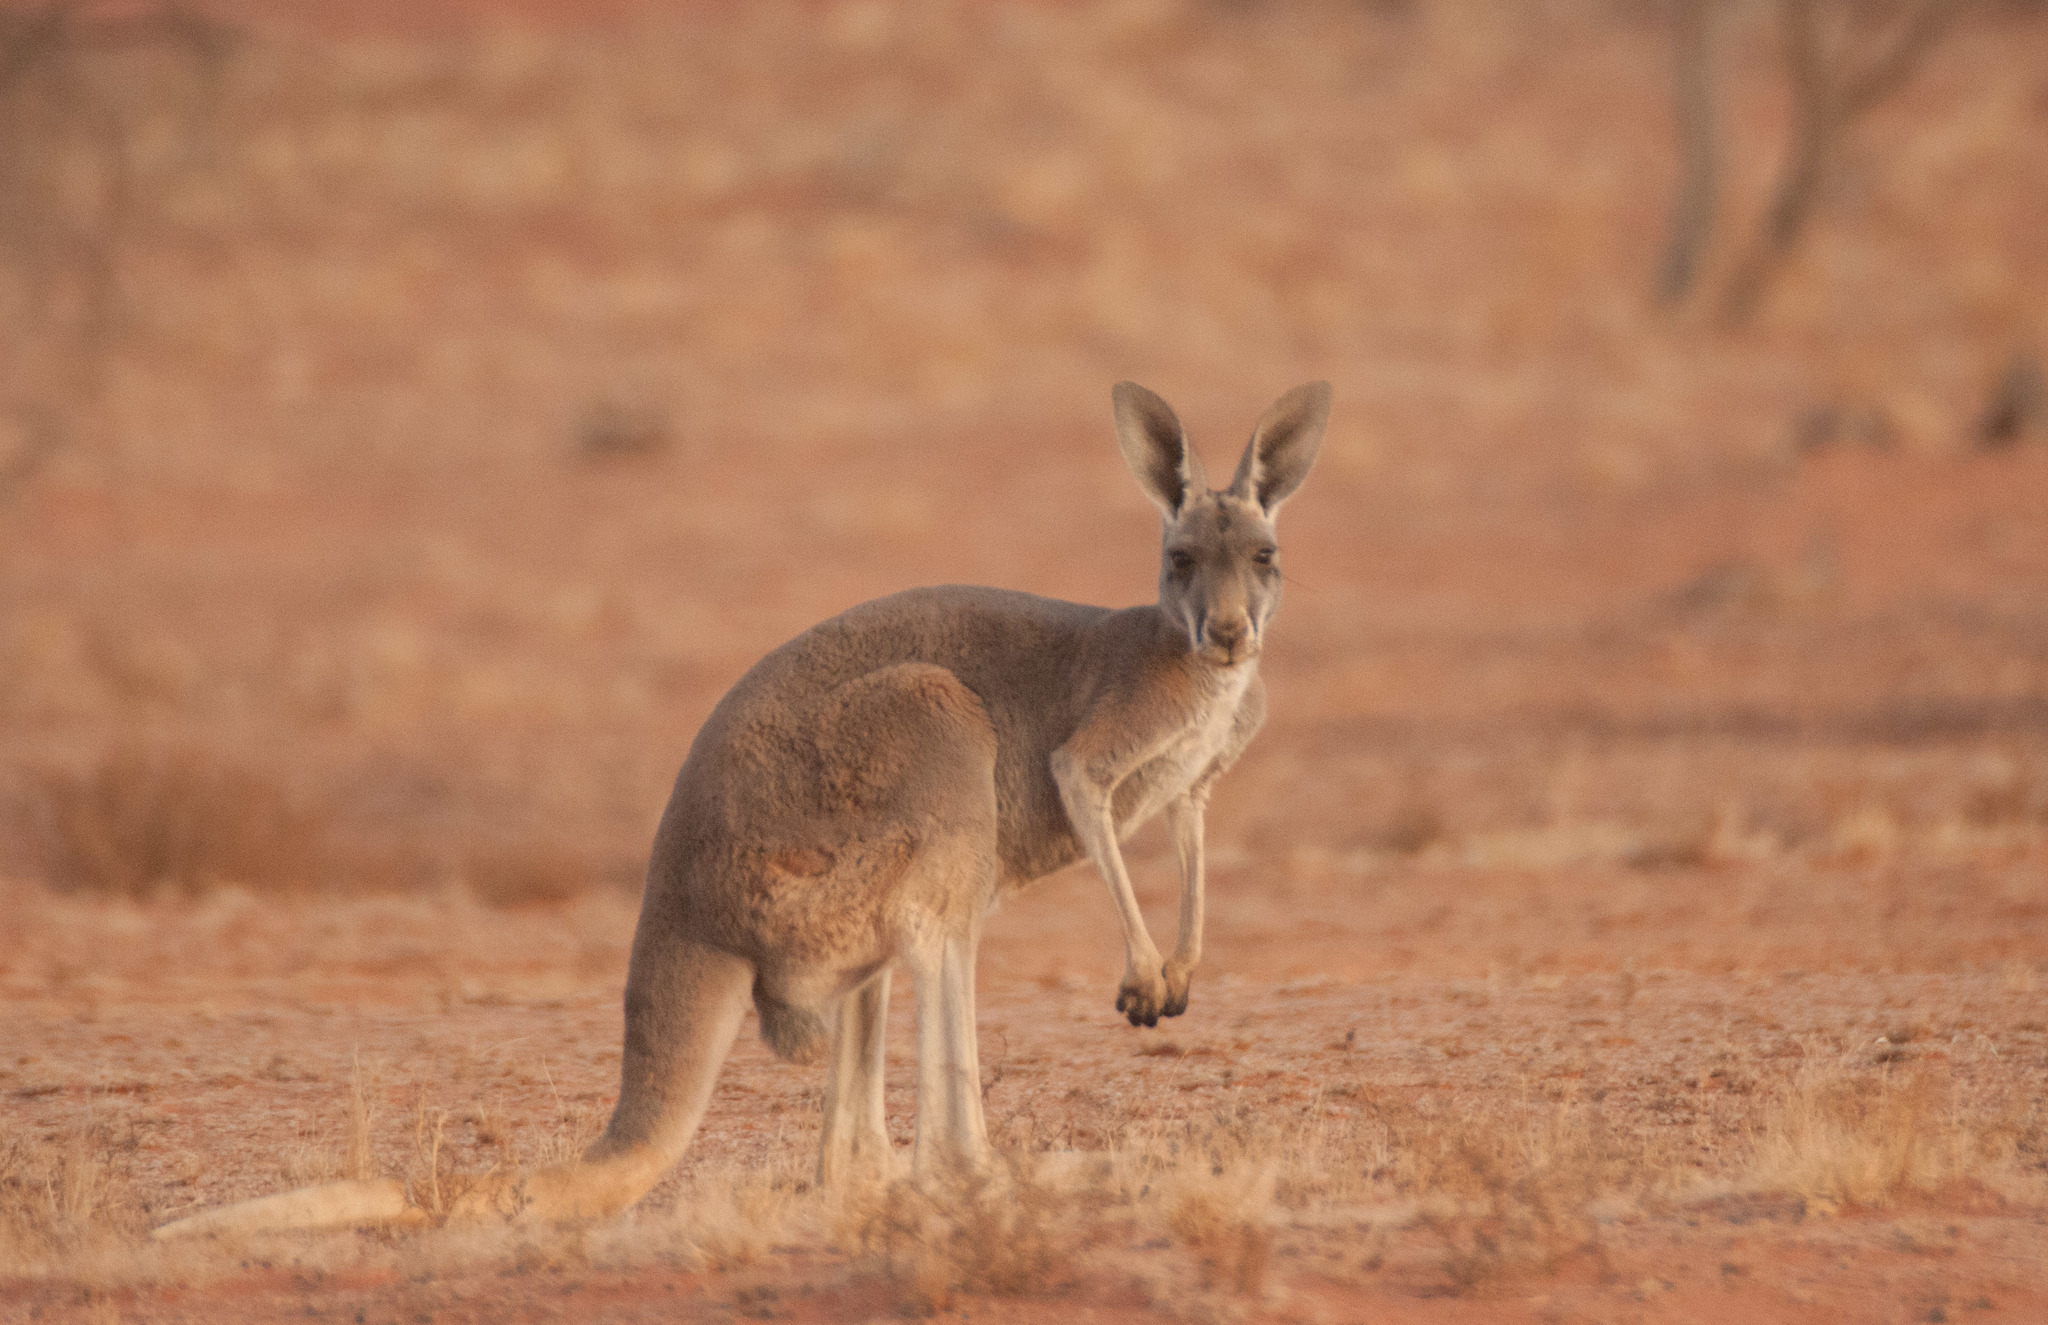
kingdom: Animalia
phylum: Chordata
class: Mammalia
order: Diprotodontia
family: Macropodidae
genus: Macropus
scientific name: Macropus rufus
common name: Red kangaroo
